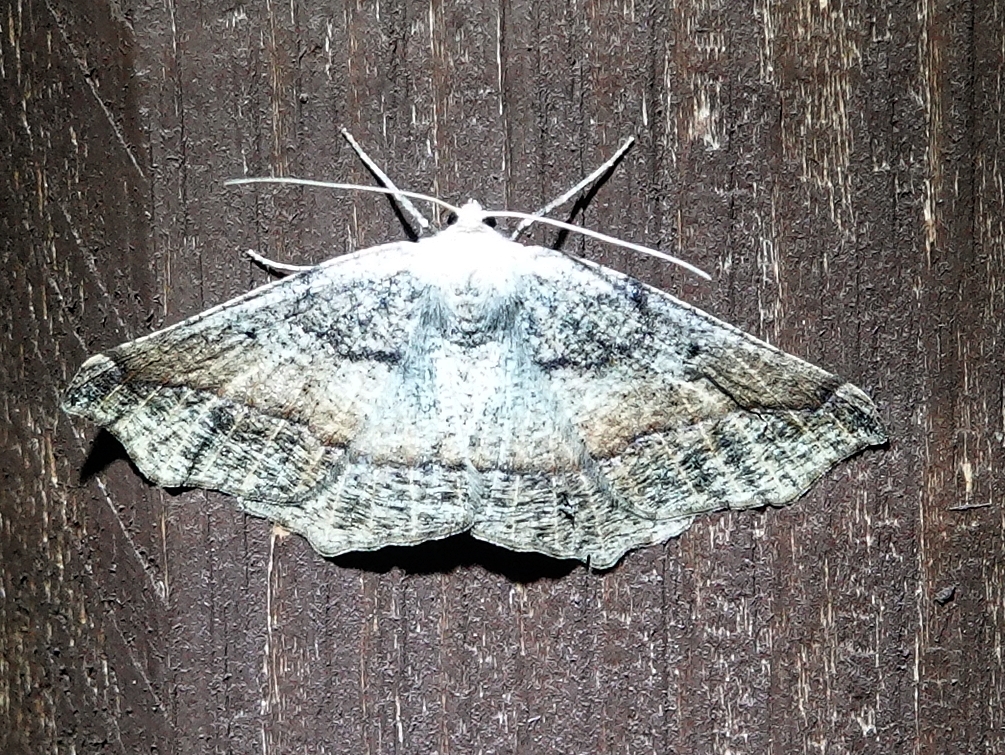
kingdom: Animalia
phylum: Arthropoda
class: Insecta
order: Lepidoptera
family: Geometridae
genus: Prochoerodes
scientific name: Prochoerodes forficaria
